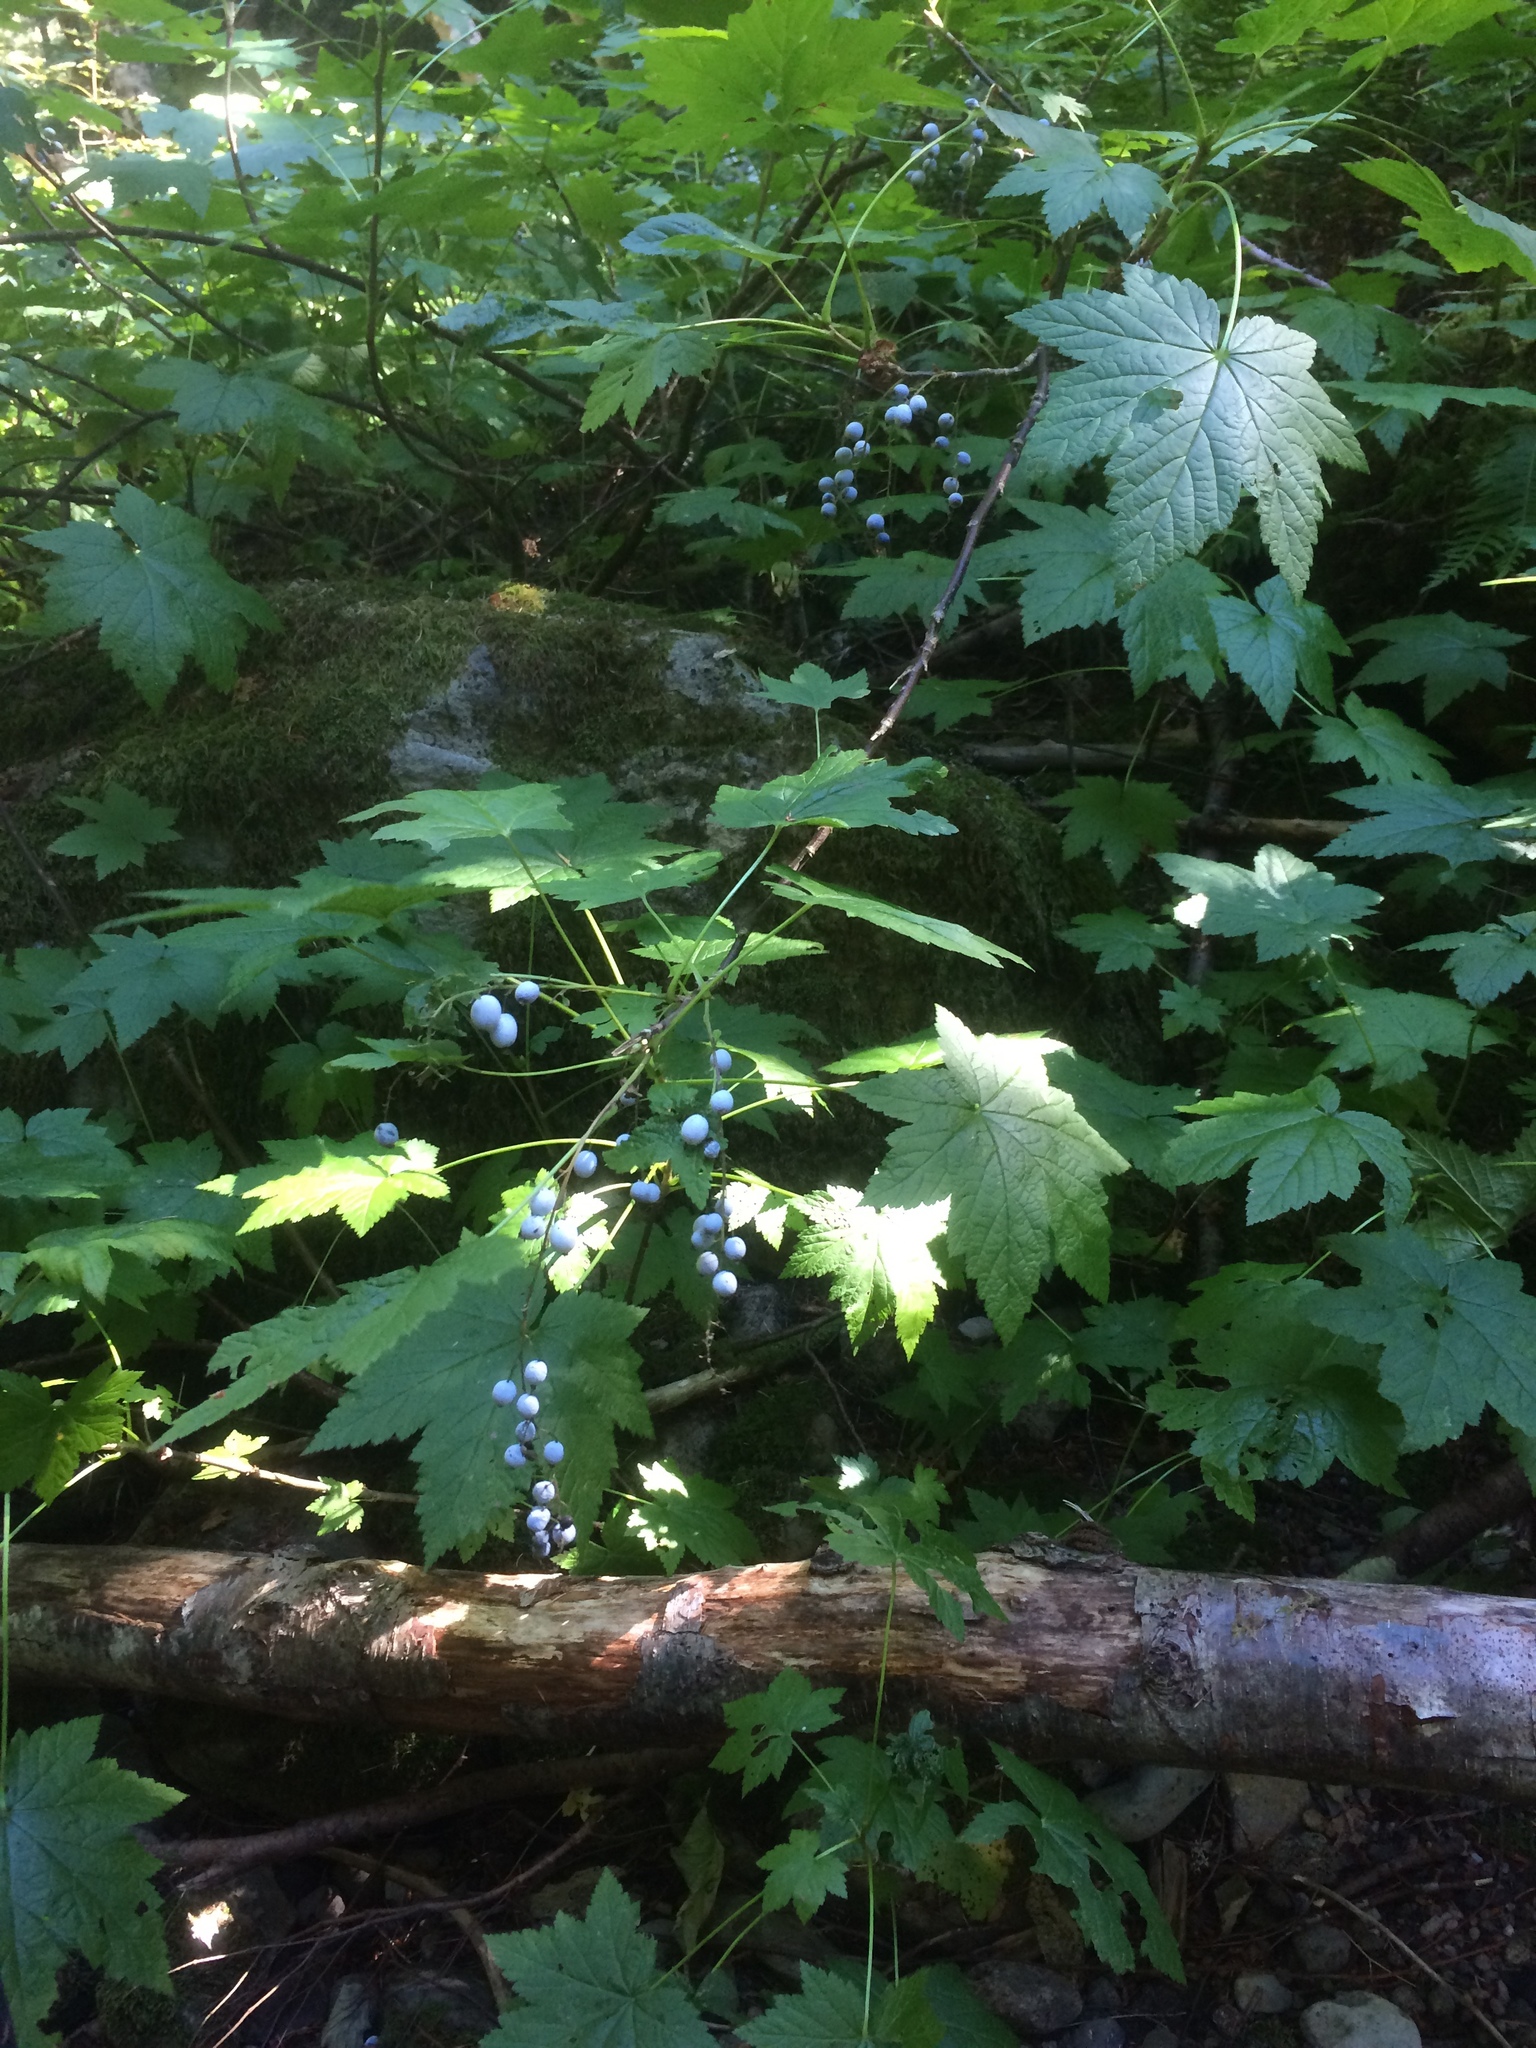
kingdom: Plantae
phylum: Tracheophyta
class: Magnoliopsida
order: Saxifragales
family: Grossulariaceae
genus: Ribes
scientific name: Ribes bracteosum
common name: California black currant
